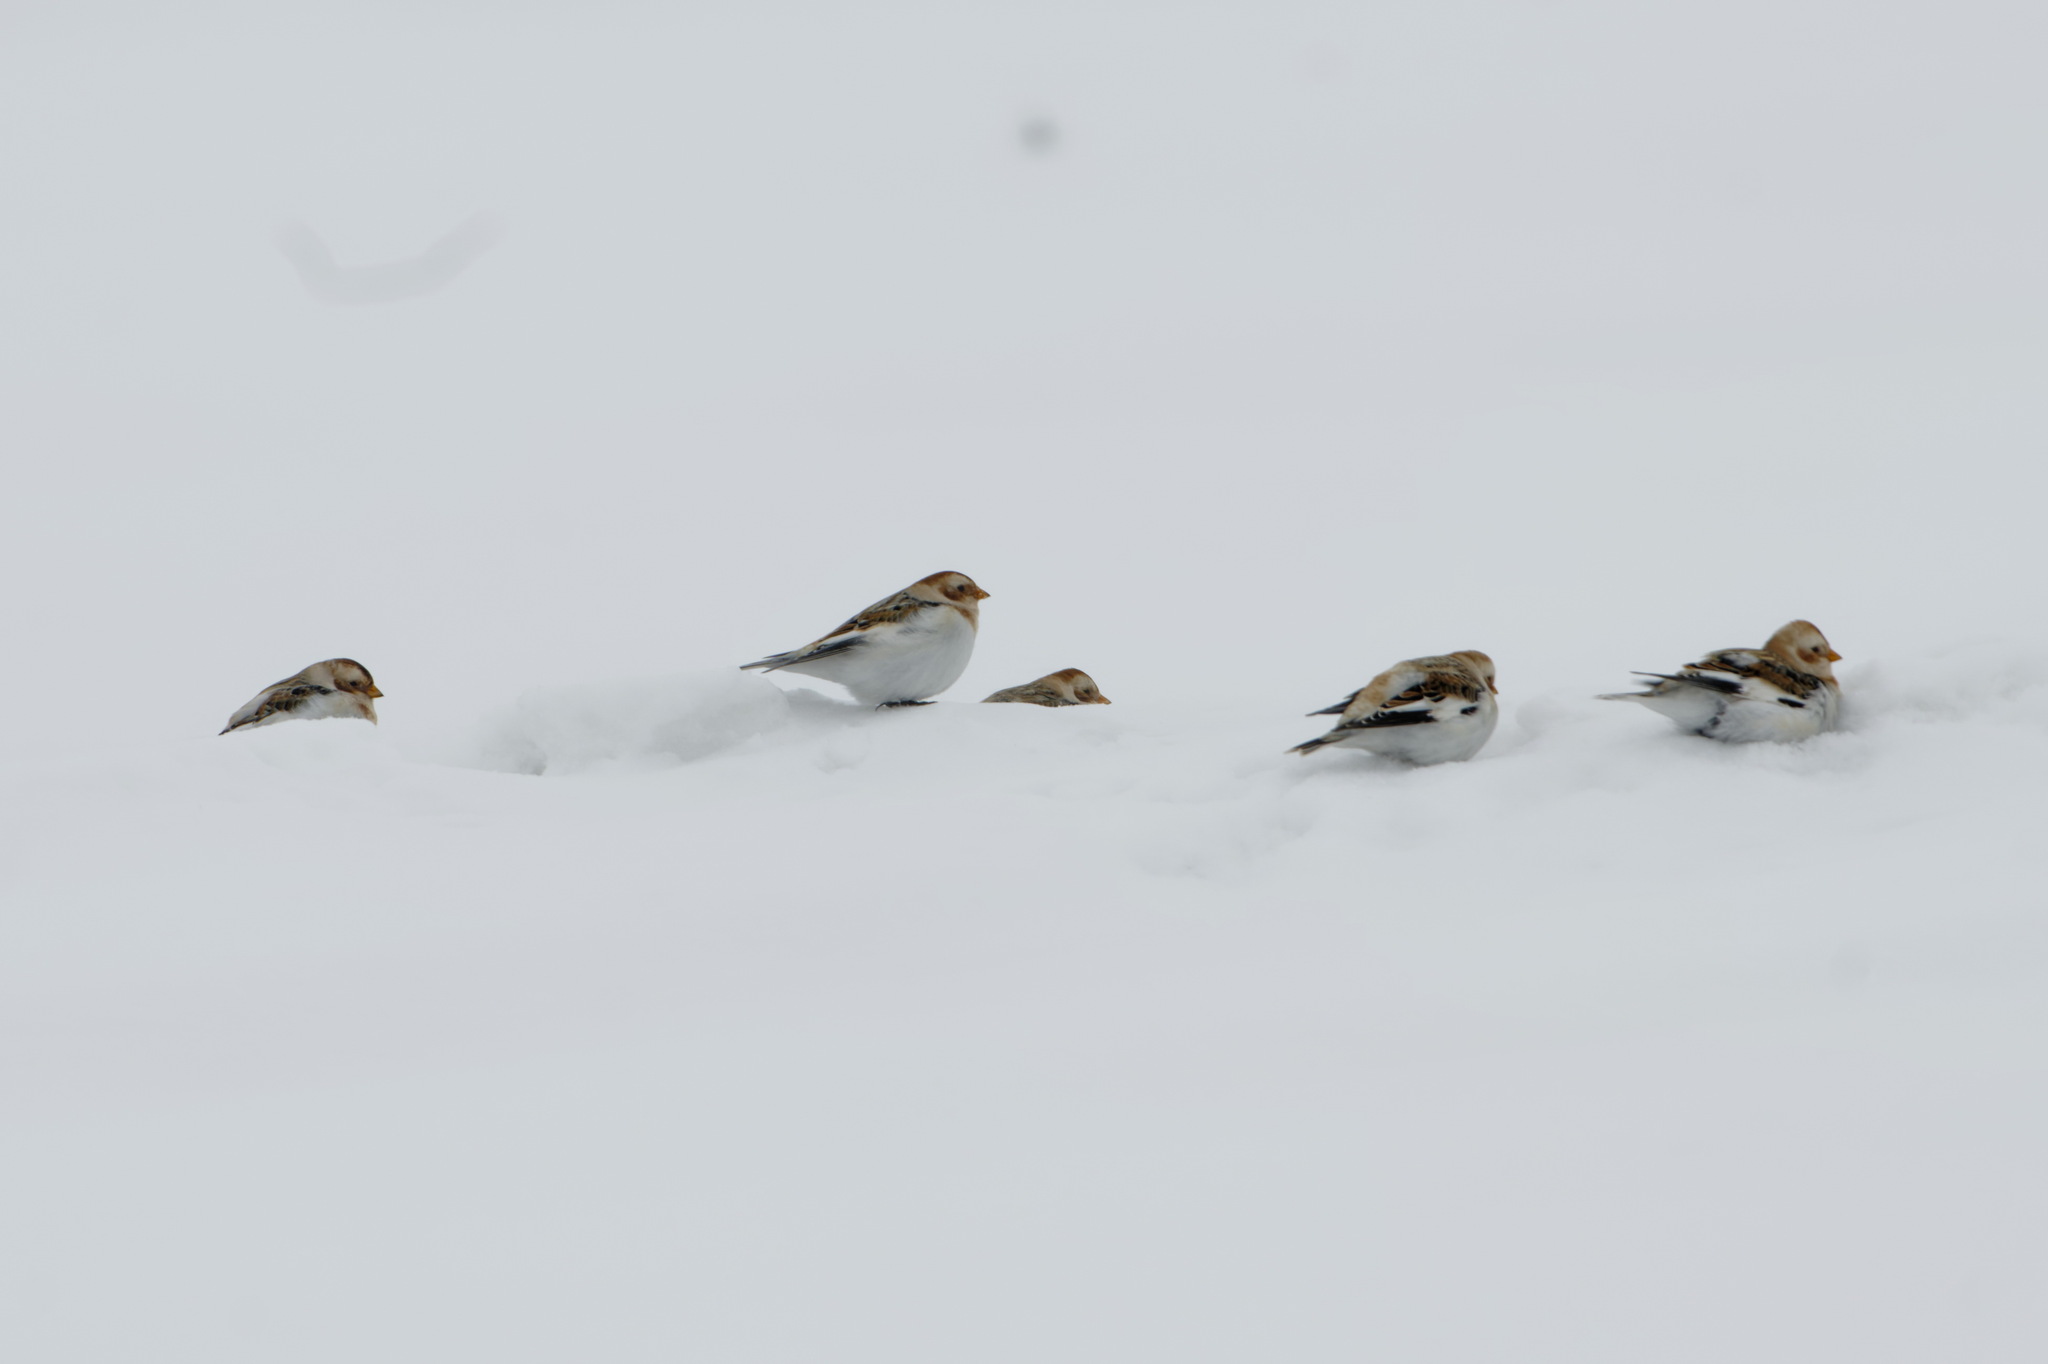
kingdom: Animalia
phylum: Chordata
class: Aves
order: Passeriformes
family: Calcariidae
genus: Plectrophenax
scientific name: Plectrophenax nivalis
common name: Snow bunting
